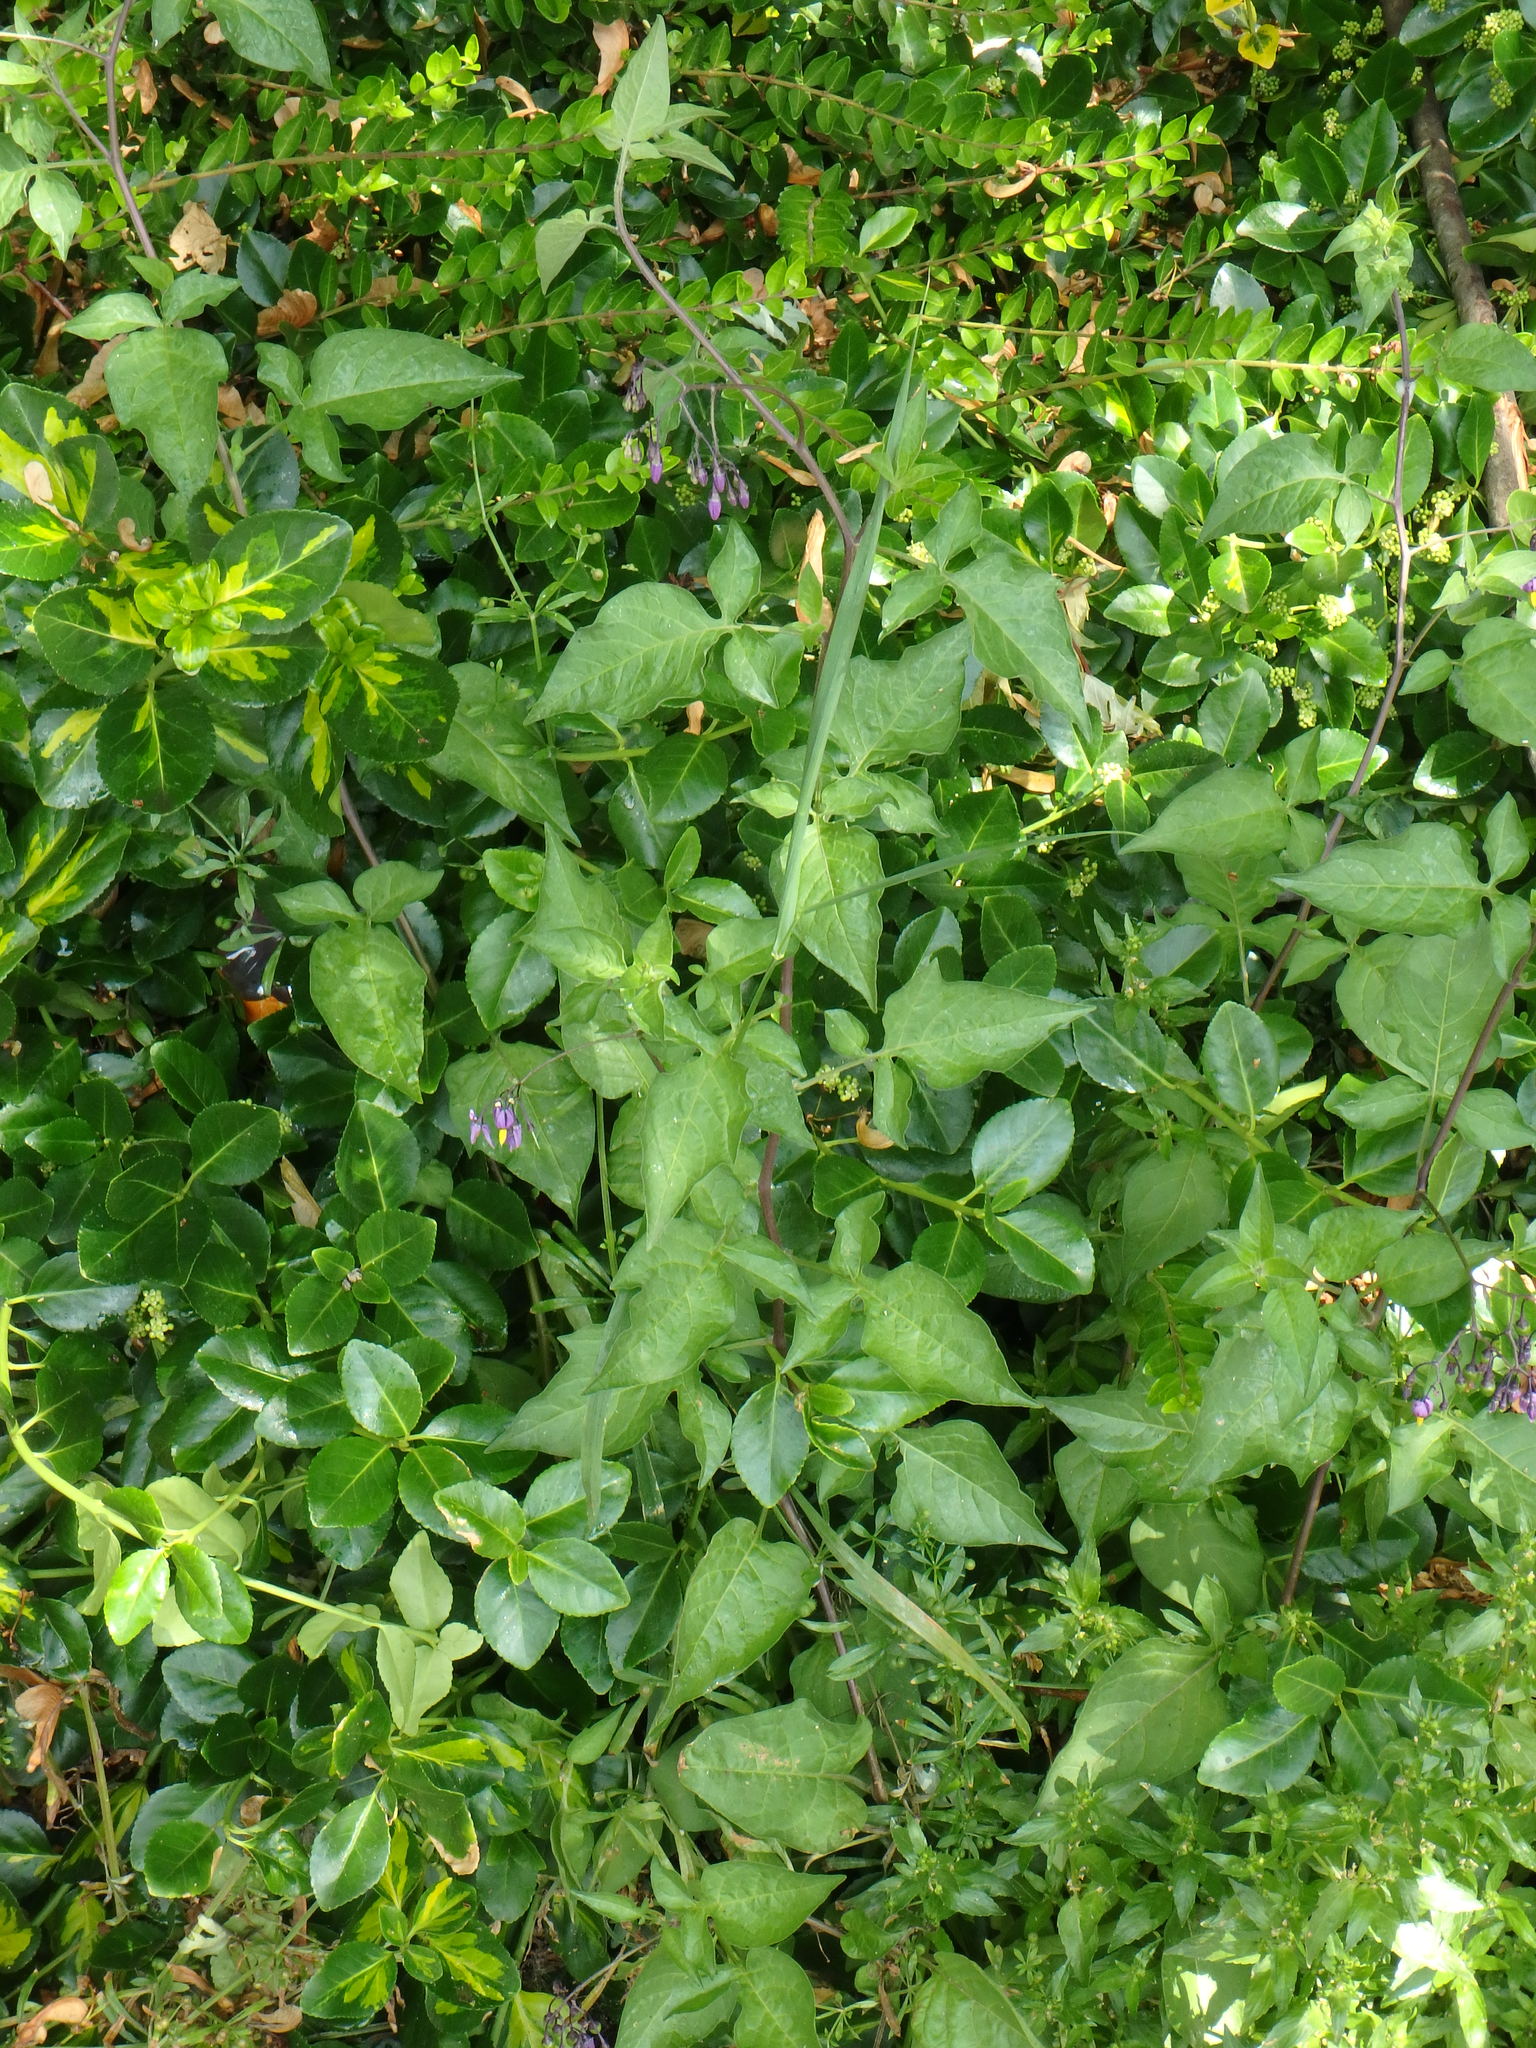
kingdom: Plantae
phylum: Tracheophyta
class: Magnoliopsida
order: Solanales
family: Solanaceae
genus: Solanum
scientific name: Solanum dulcamara
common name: Climbing nightshade
